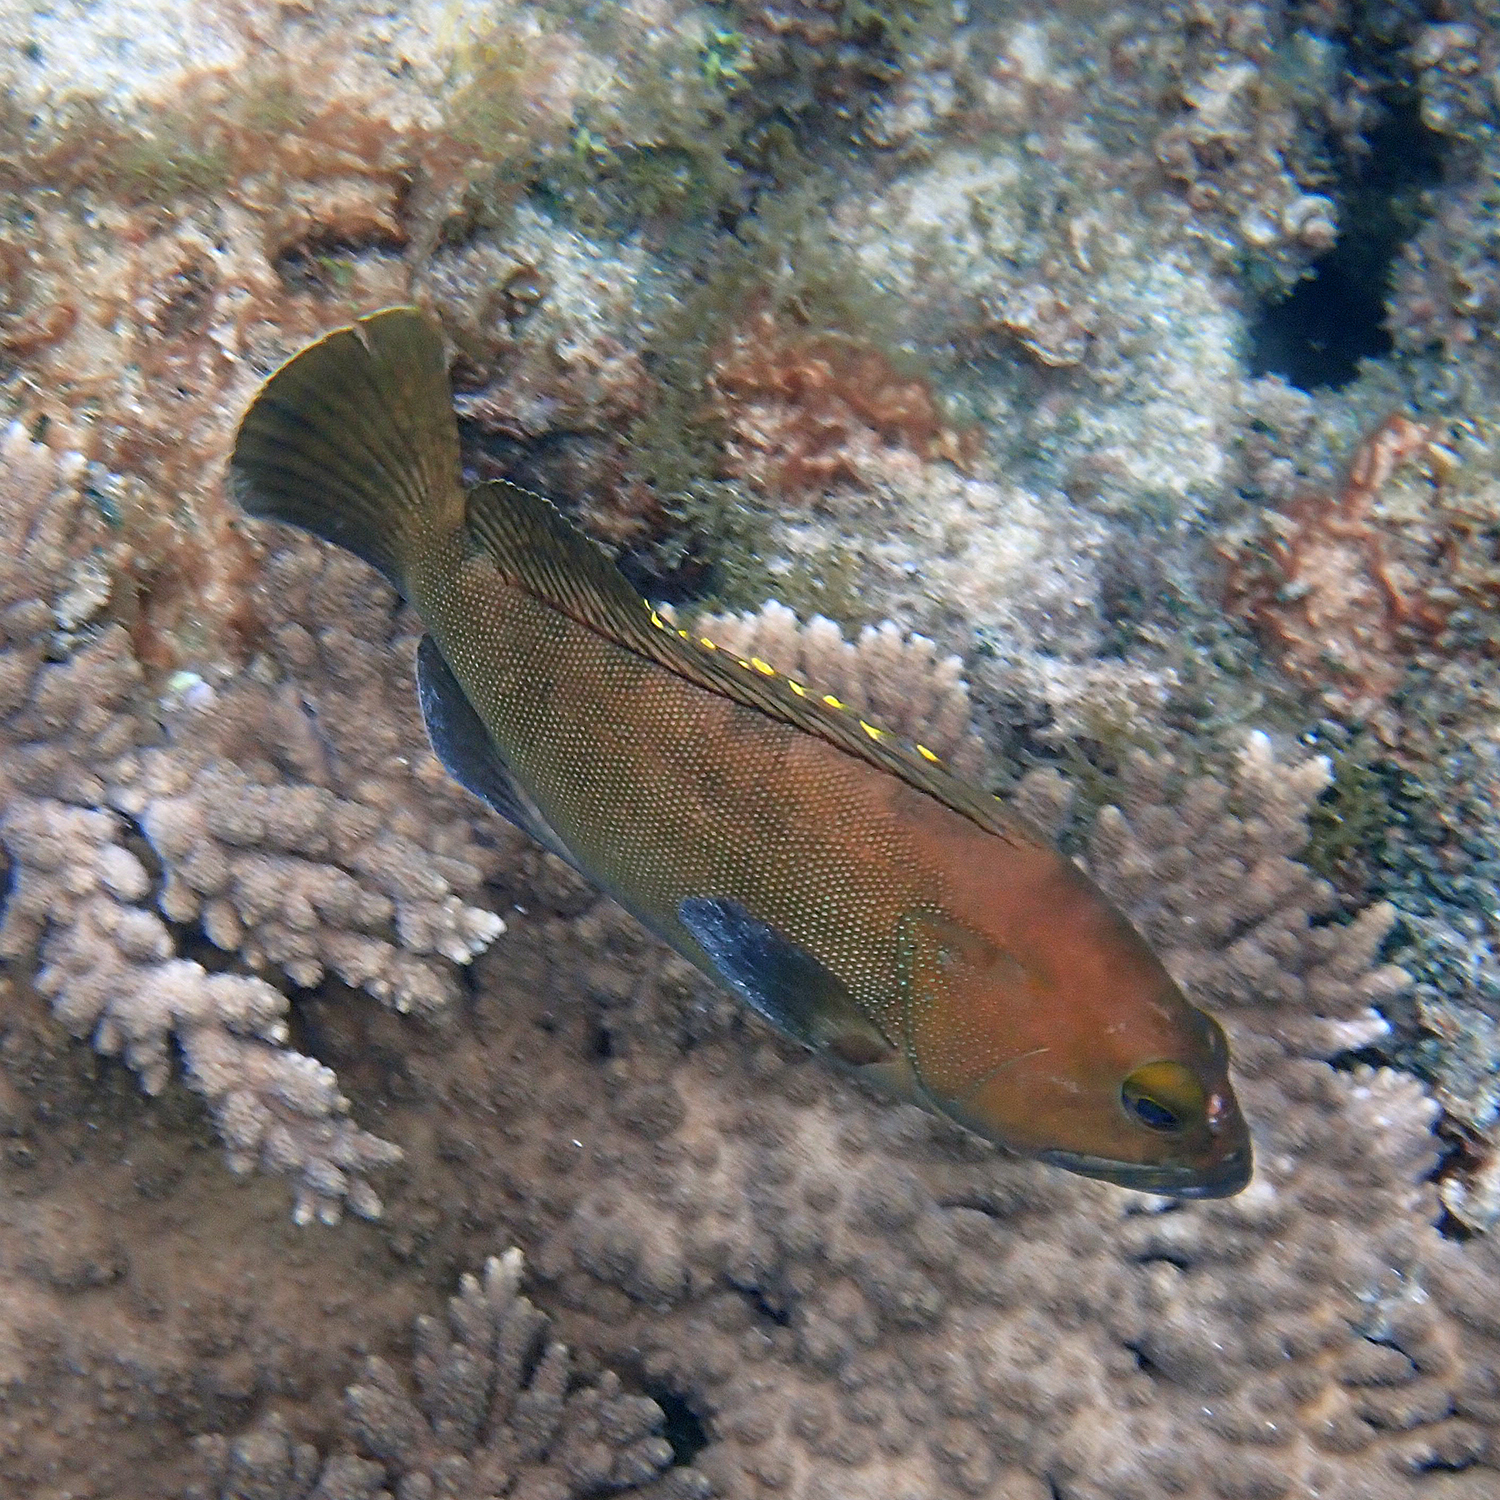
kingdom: Animalia
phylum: Chordata
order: Perciformes
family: Serranidae
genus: Epinephelus
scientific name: Epinephelus rivulatus
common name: Halfmoon grouper
